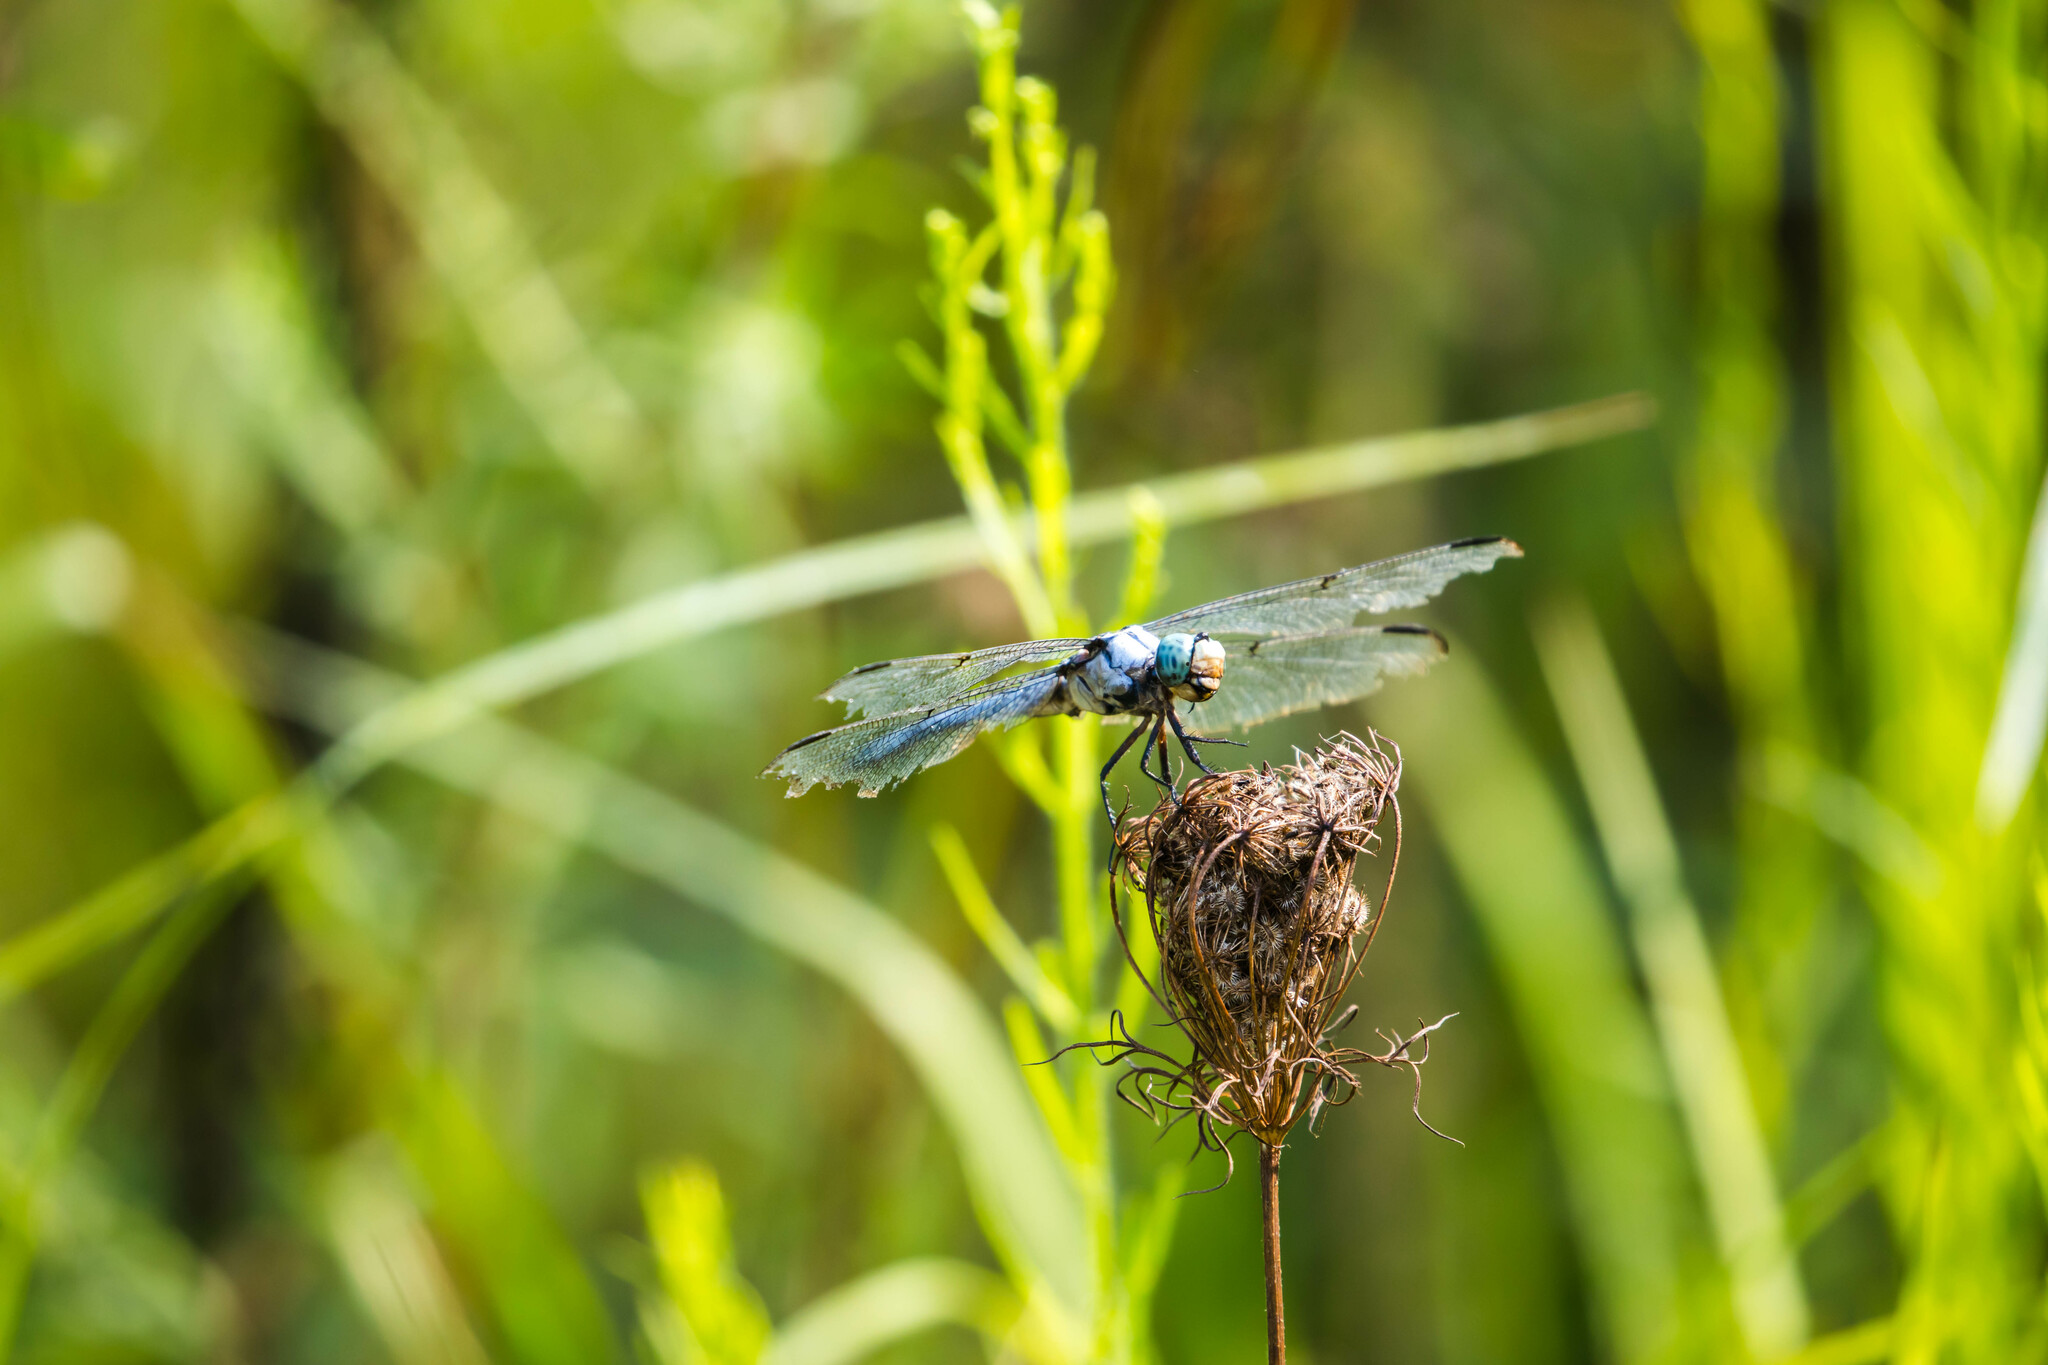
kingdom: Animalia
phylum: Arthropoda
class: Insecta
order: Odonata
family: Libellulidae
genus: Libellula
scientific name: Libellula vibrans
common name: Great blue skimmer
